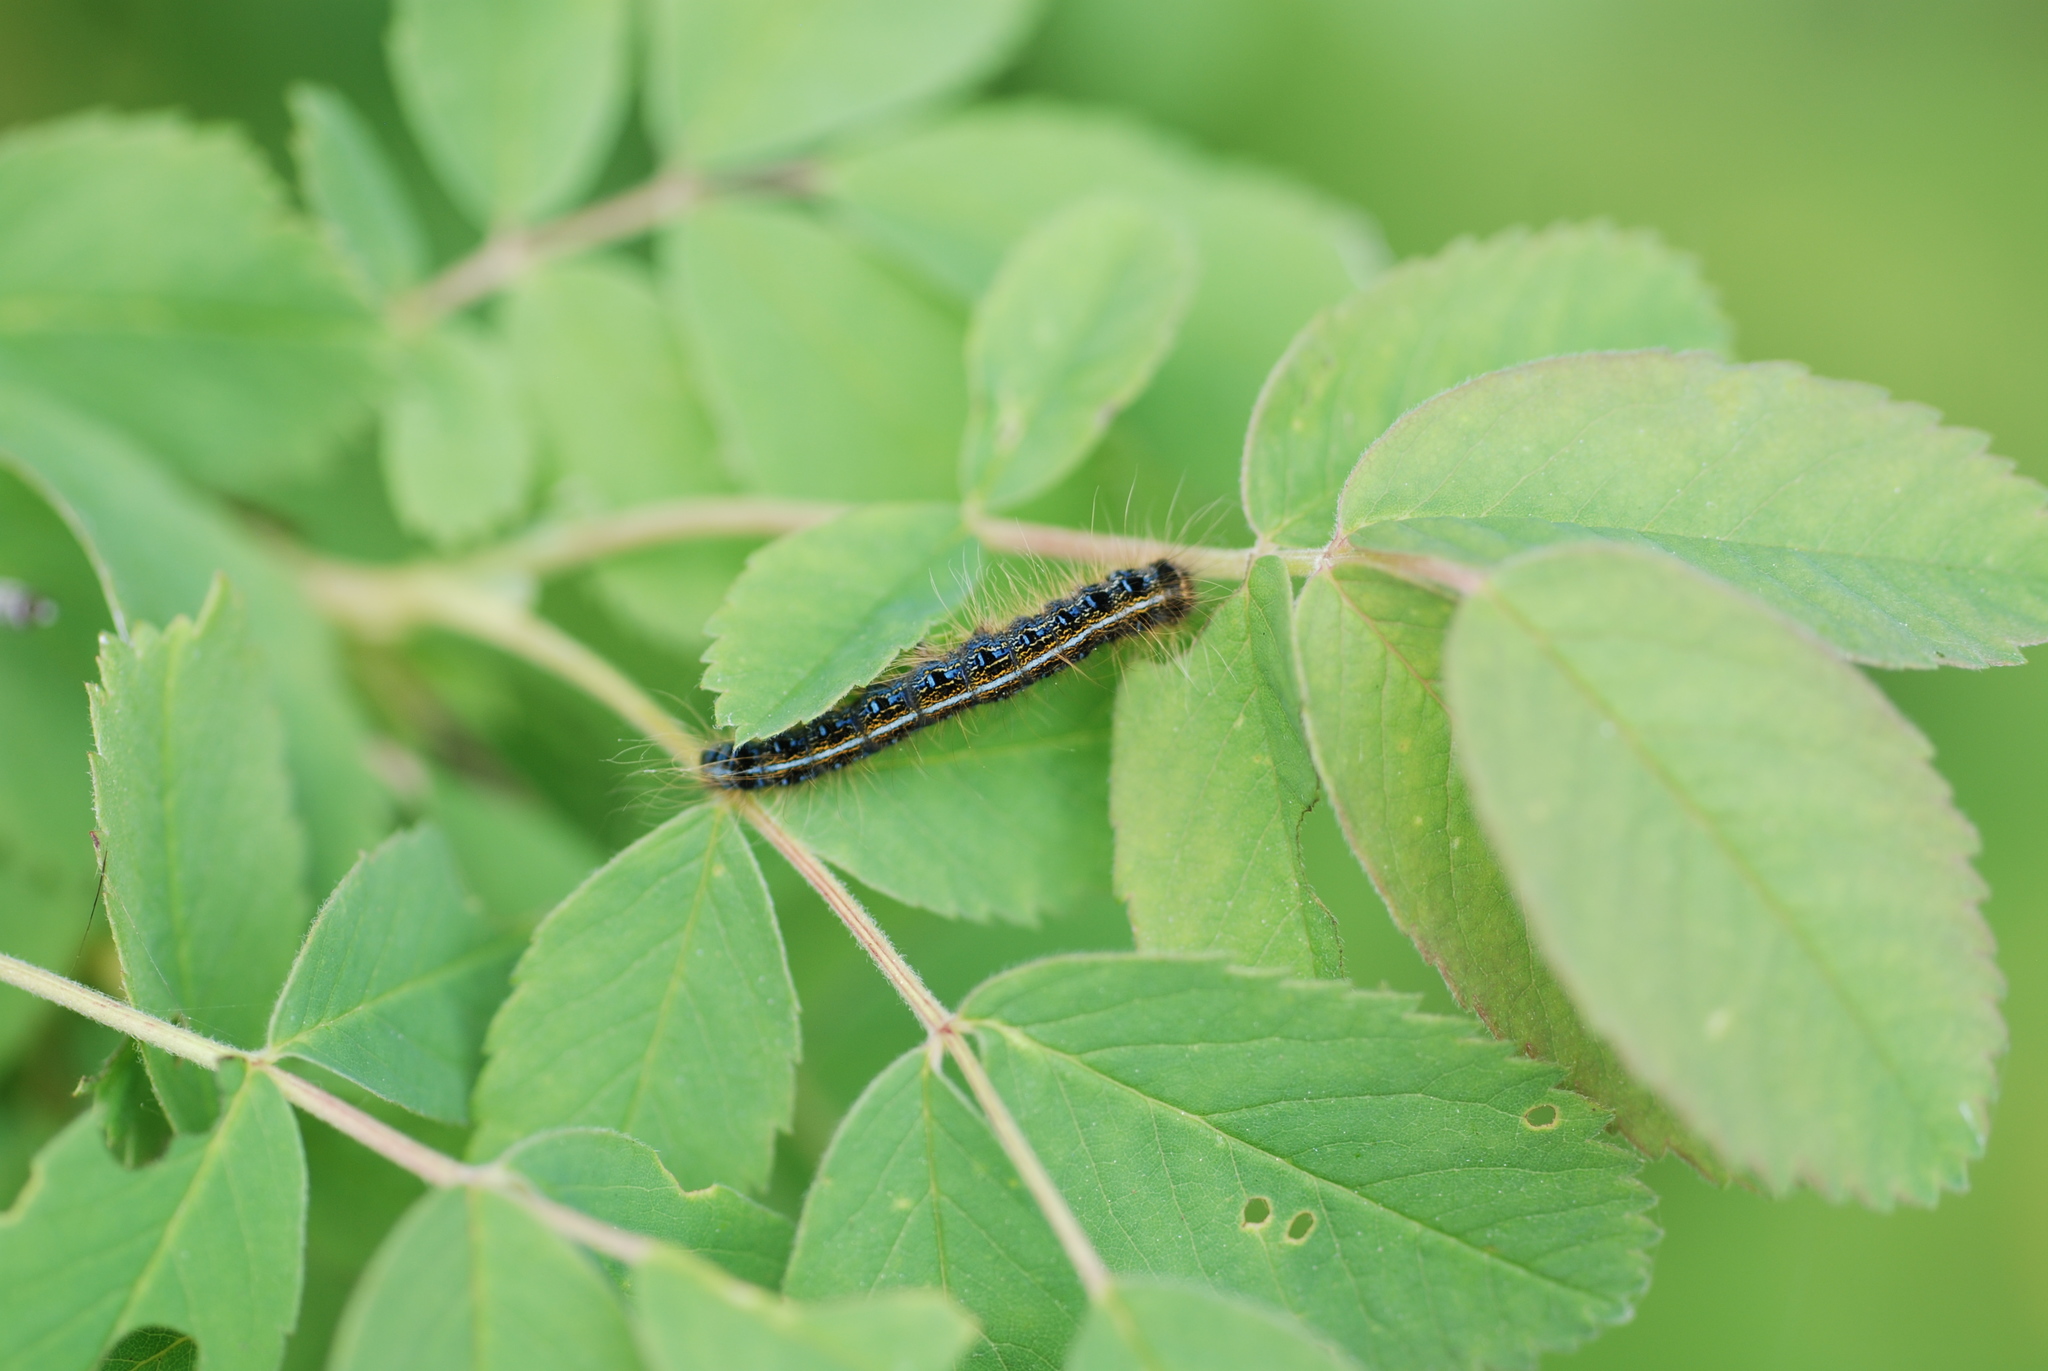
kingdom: Animalia
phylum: Arthropoda
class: Insecta
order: Lepidoptera
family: Lasiocampidae
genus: Malacosoma
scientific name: Malacosoma americana
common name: Eastern tent caterpillar moth
